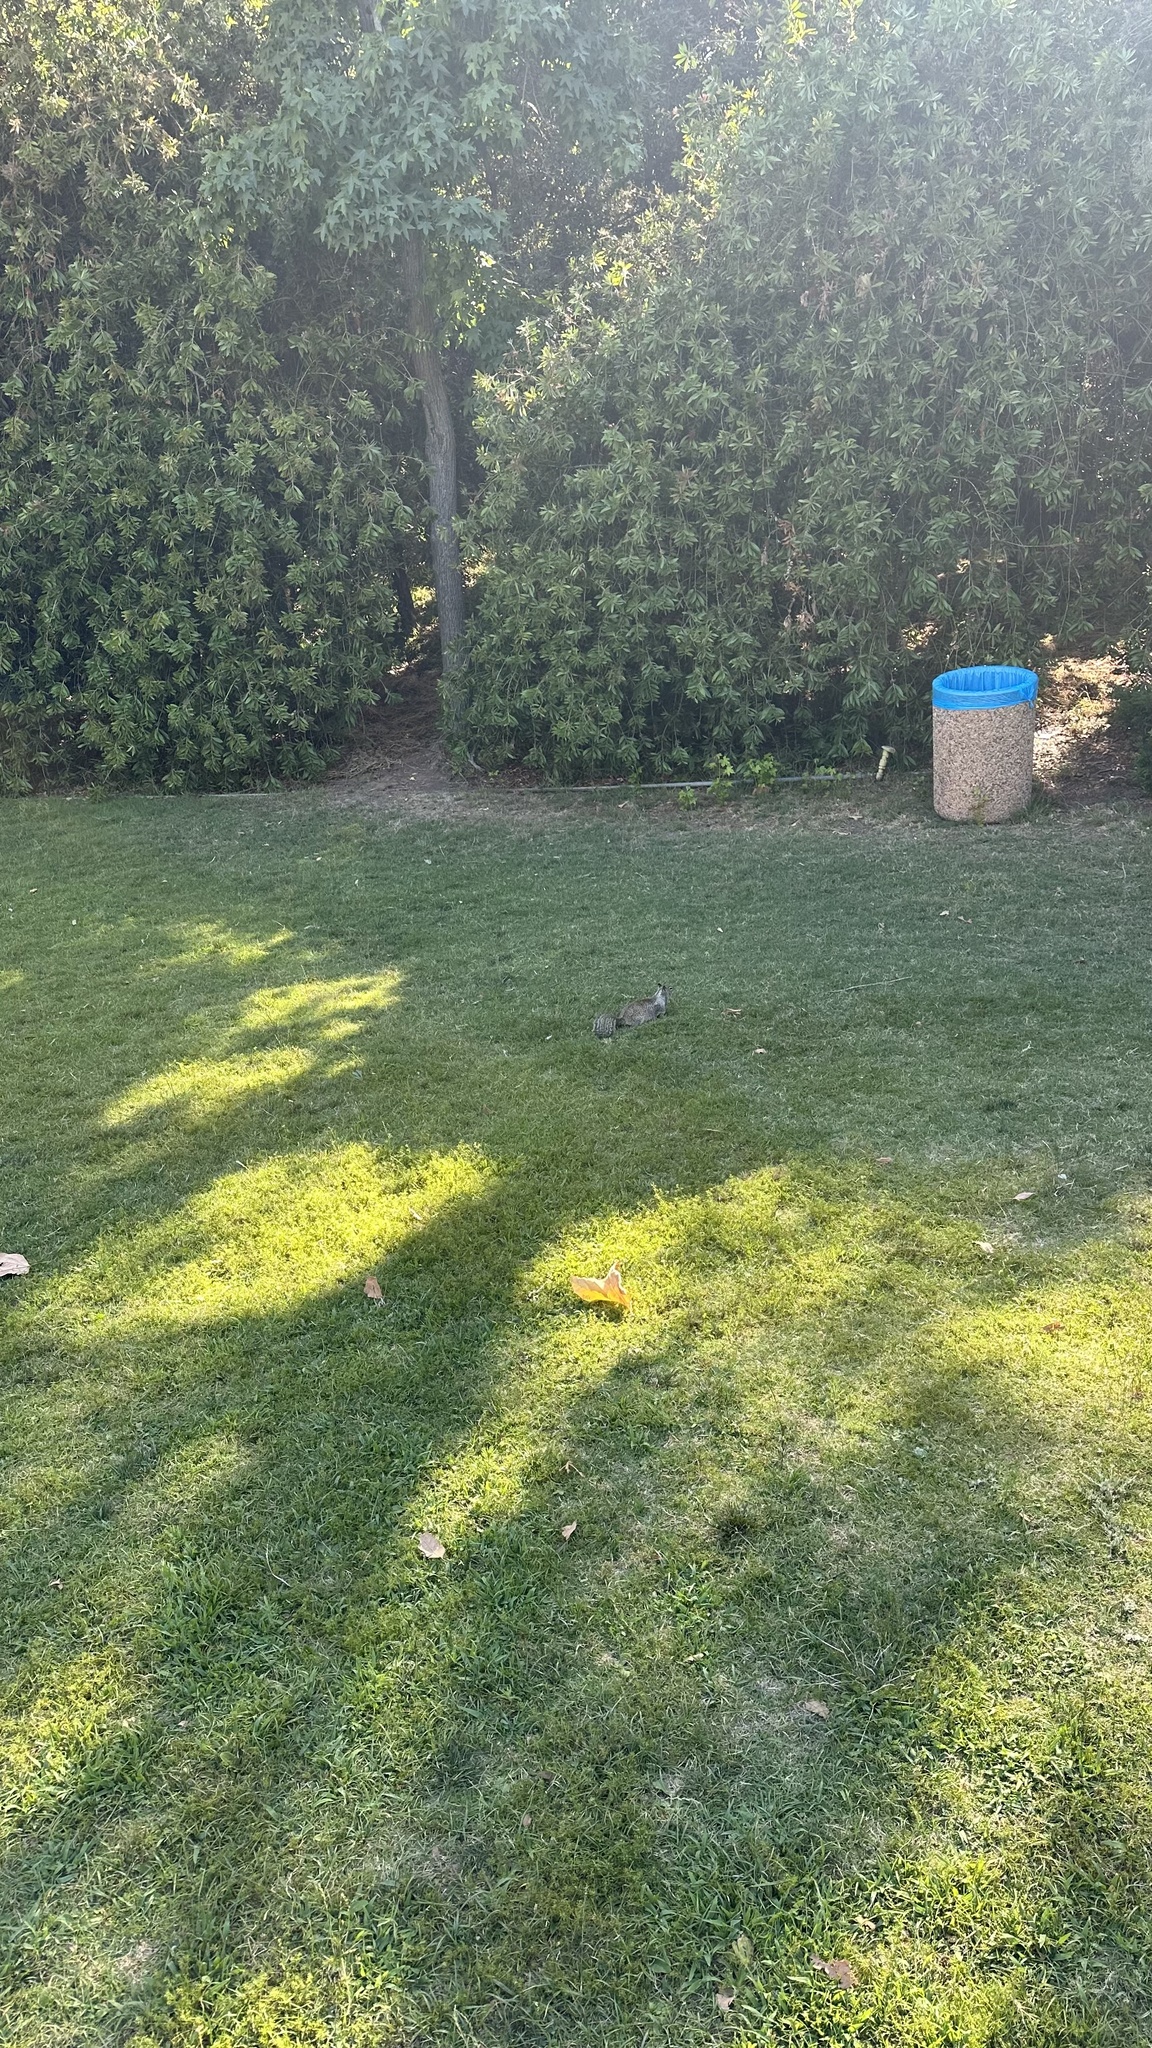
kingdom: Animalia
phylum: Chordata
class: Mammalia
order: Rodentia
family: Sciuridae
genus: Otospermophilus
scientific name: Otospermophilus beecheyi
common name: California ground squirrel
